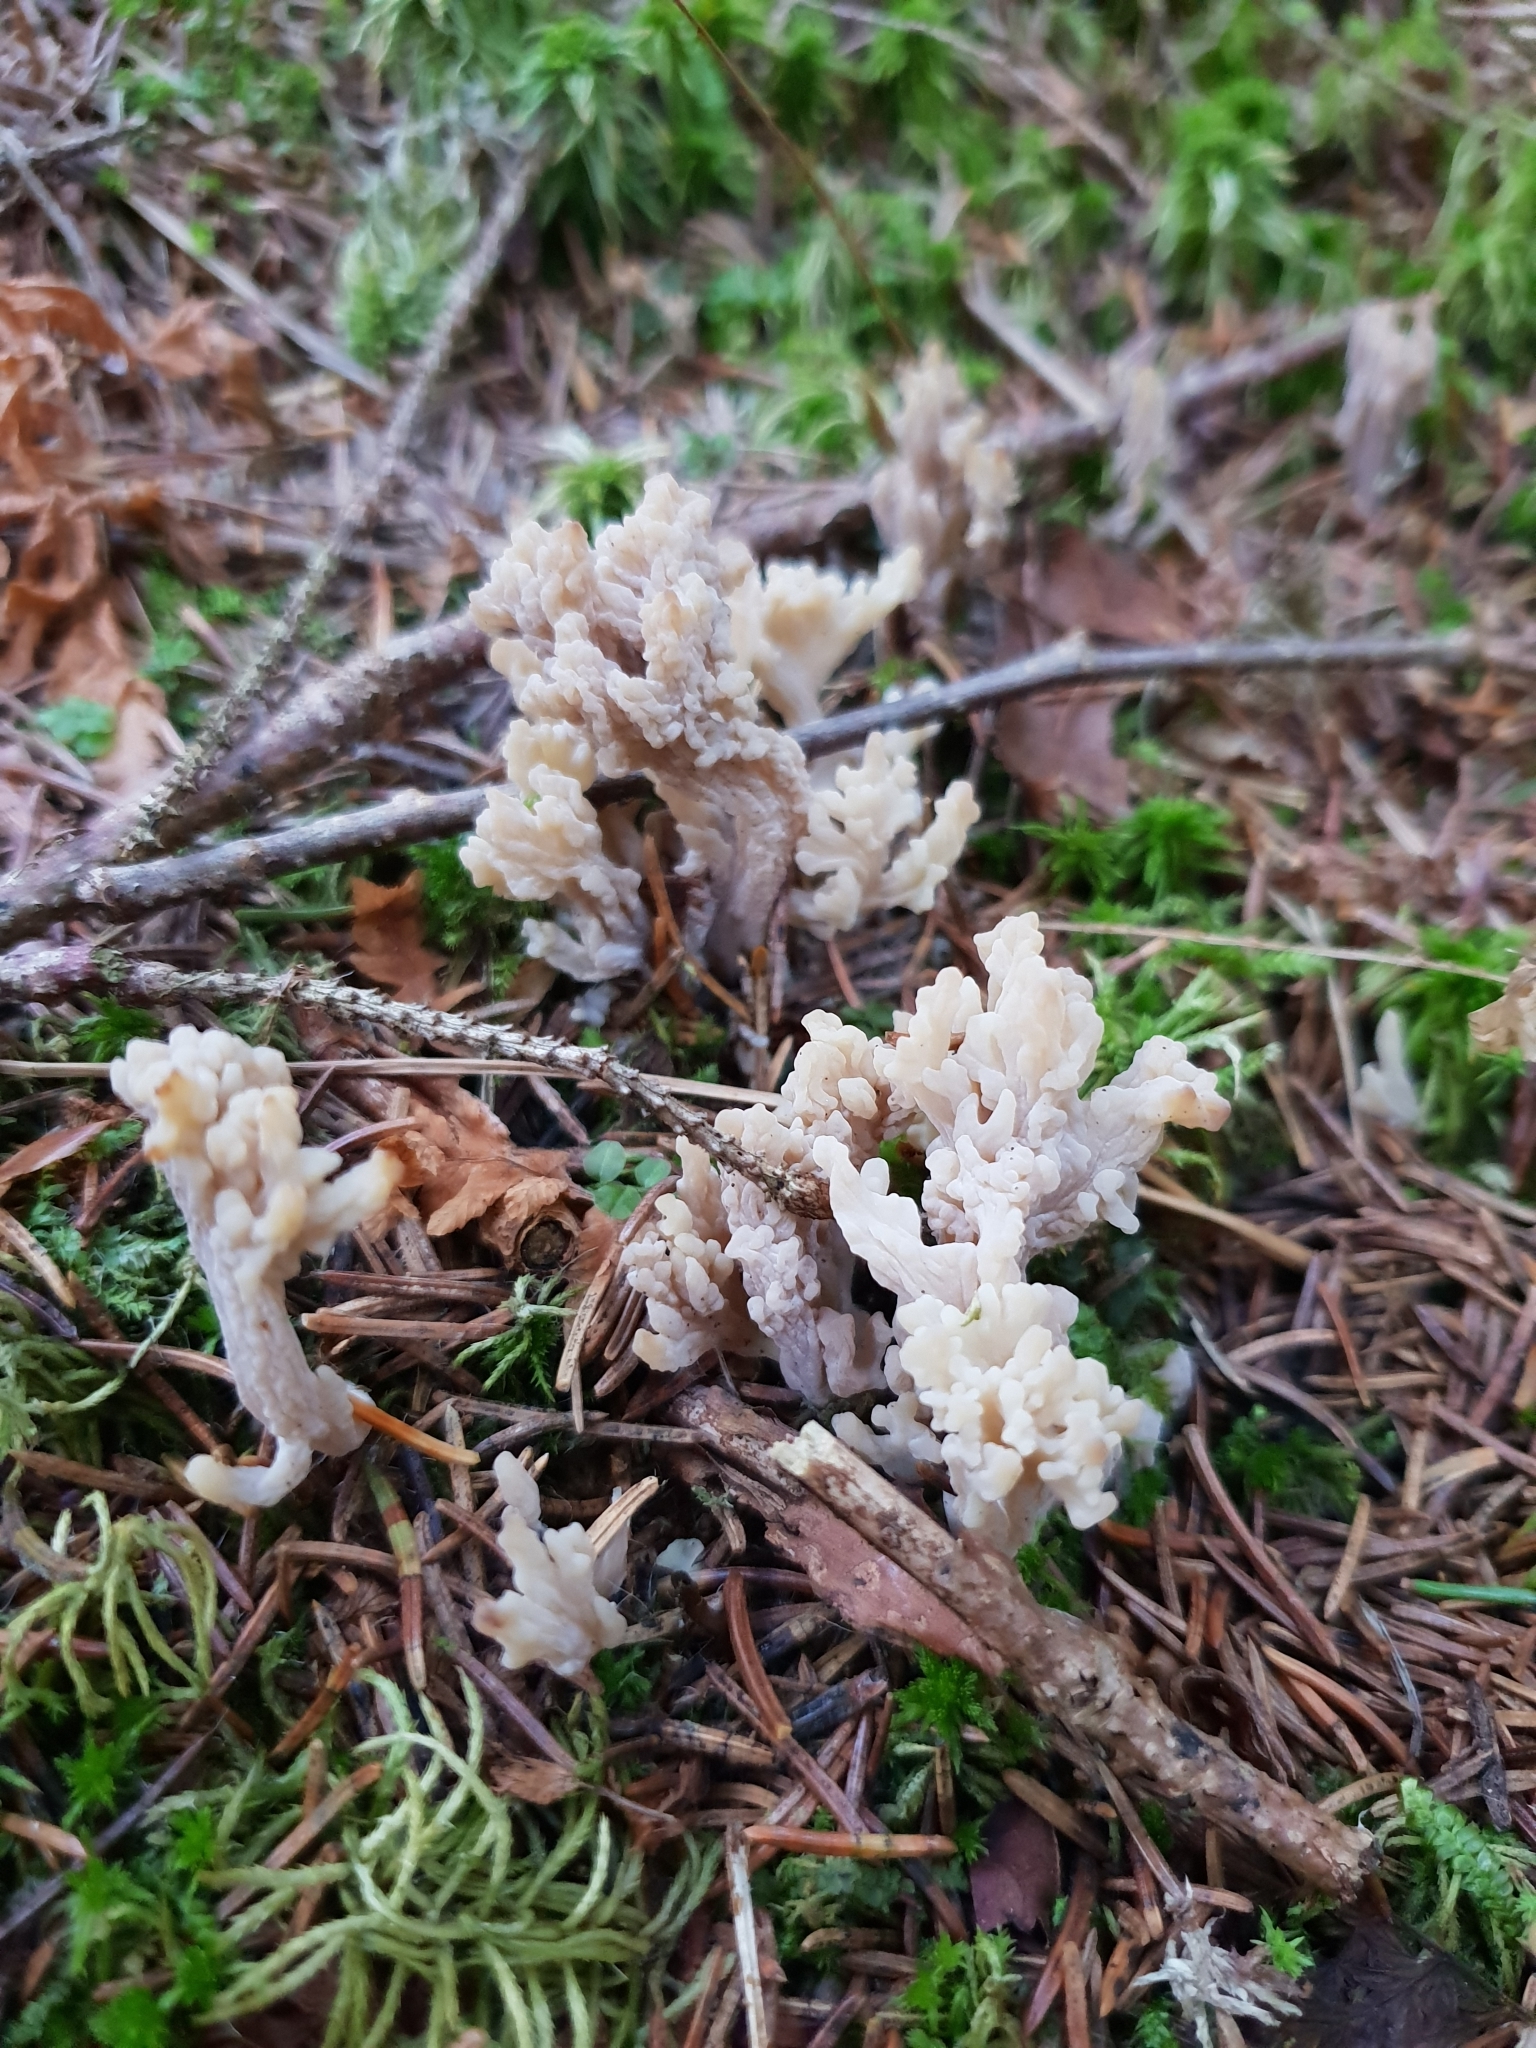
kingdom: Fungi
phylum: Basidiomycota
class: Agaricomycetes
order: Cantharellales
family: Hydnaceae
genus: Clavulina
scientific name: Clavulina cinerea
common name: Grey coral
